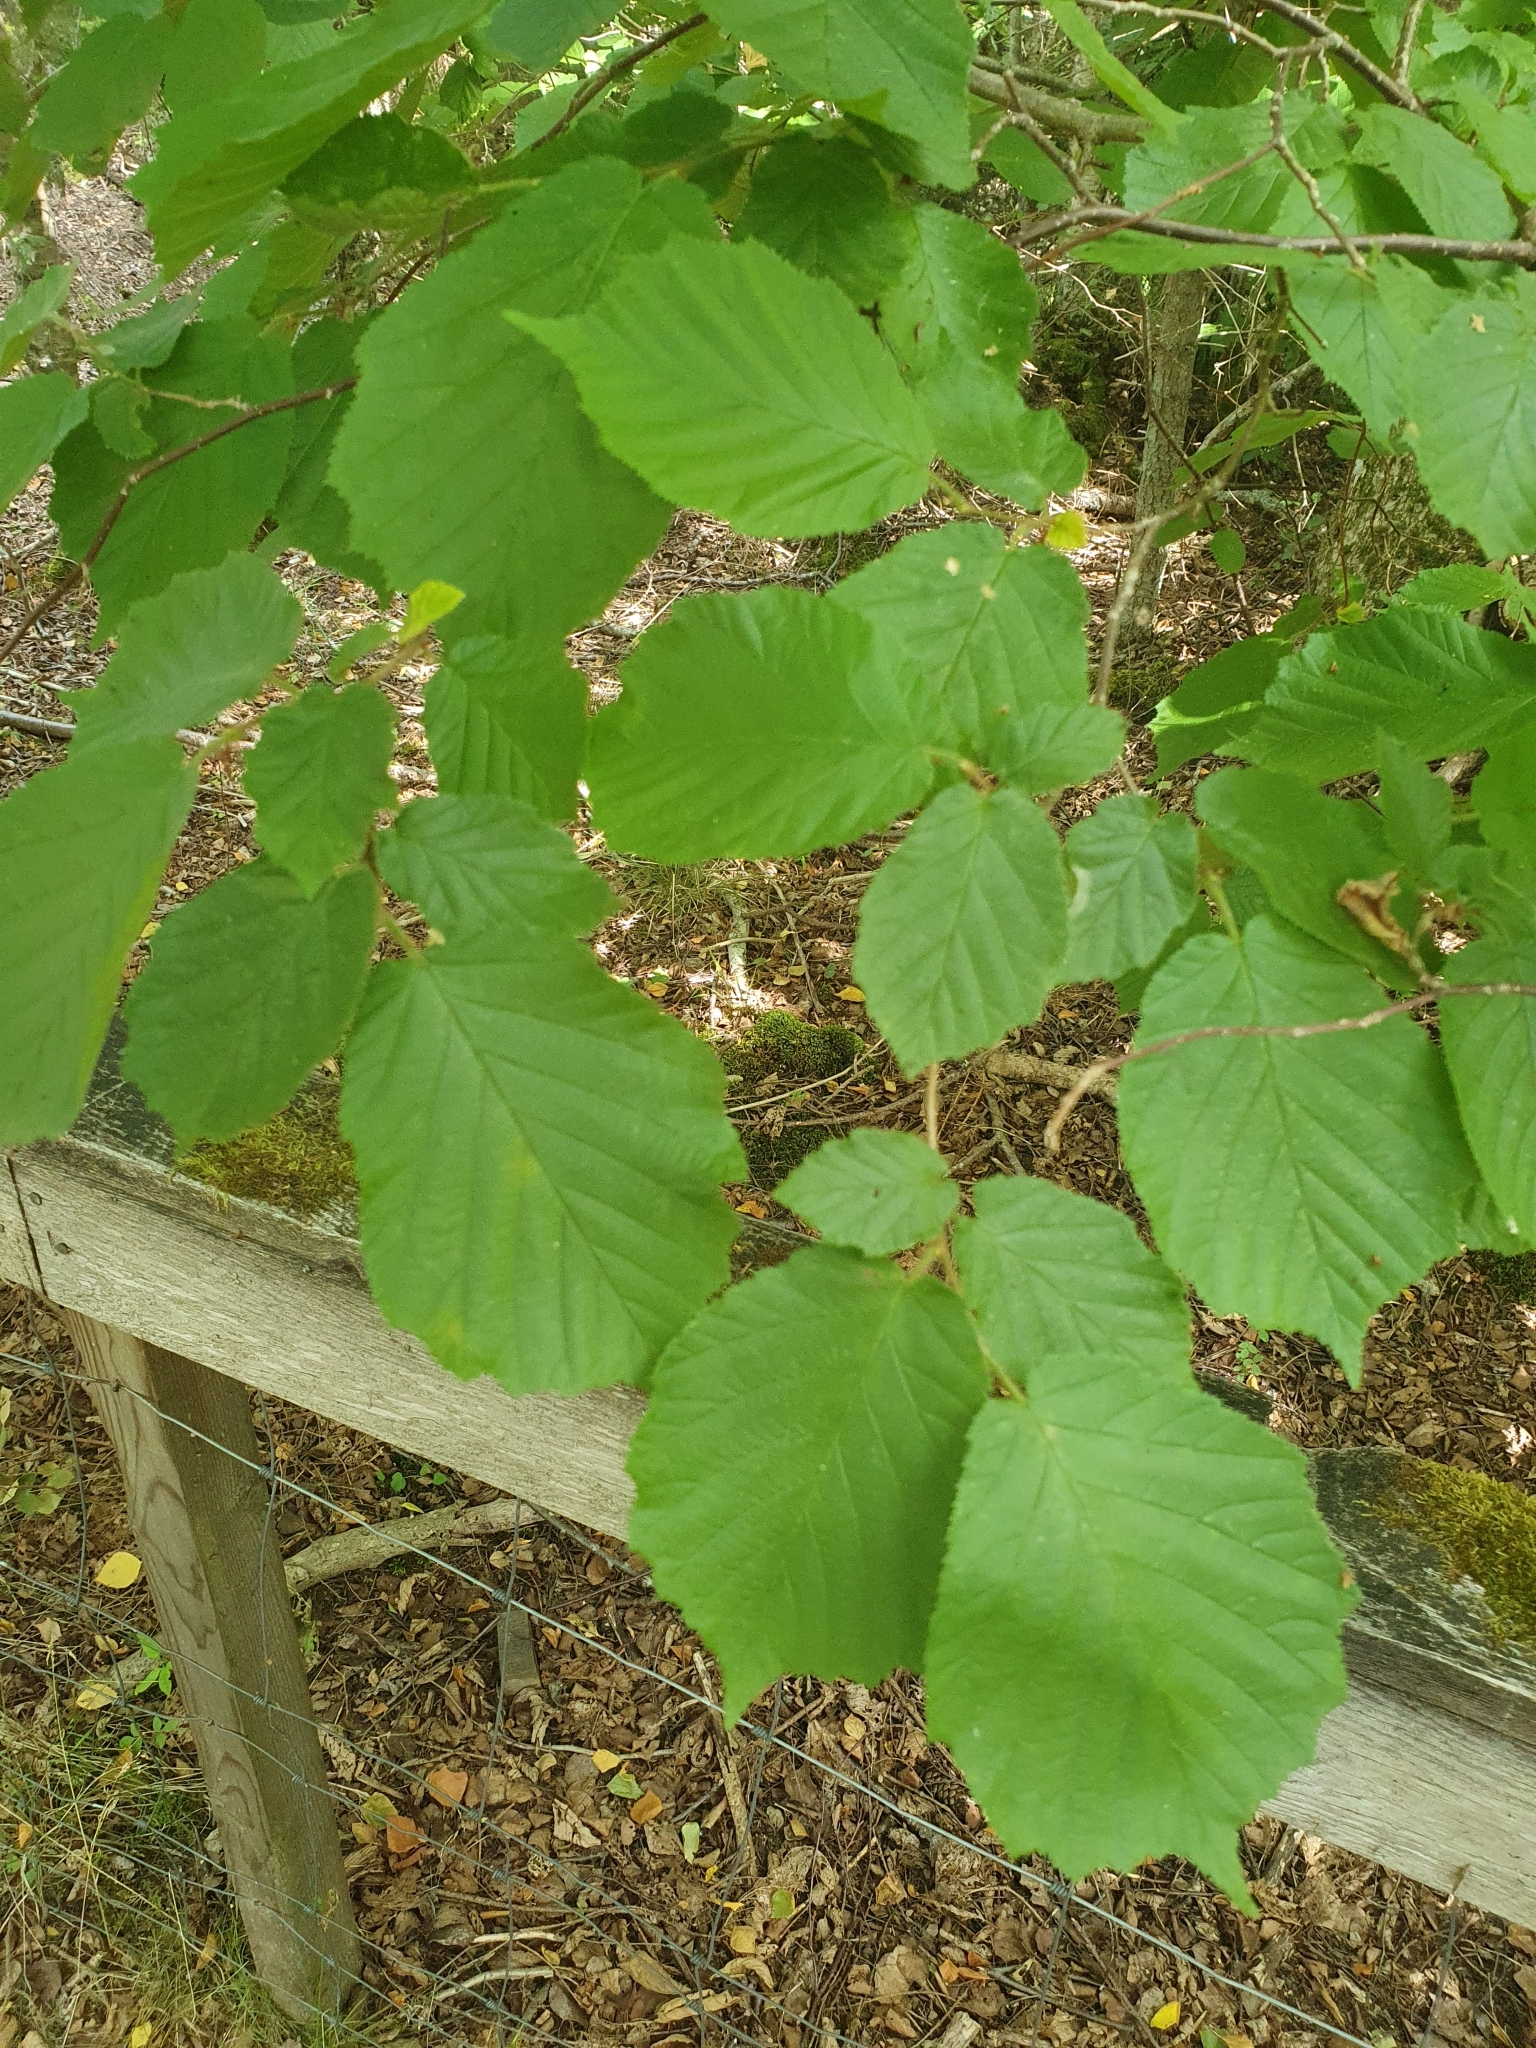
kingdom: Plantae
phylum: Tracheophyta
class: Magnoliopsida
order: Fagales
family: Betulaceae
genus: Corylus
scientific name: Corylus avellana
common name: European hazel
